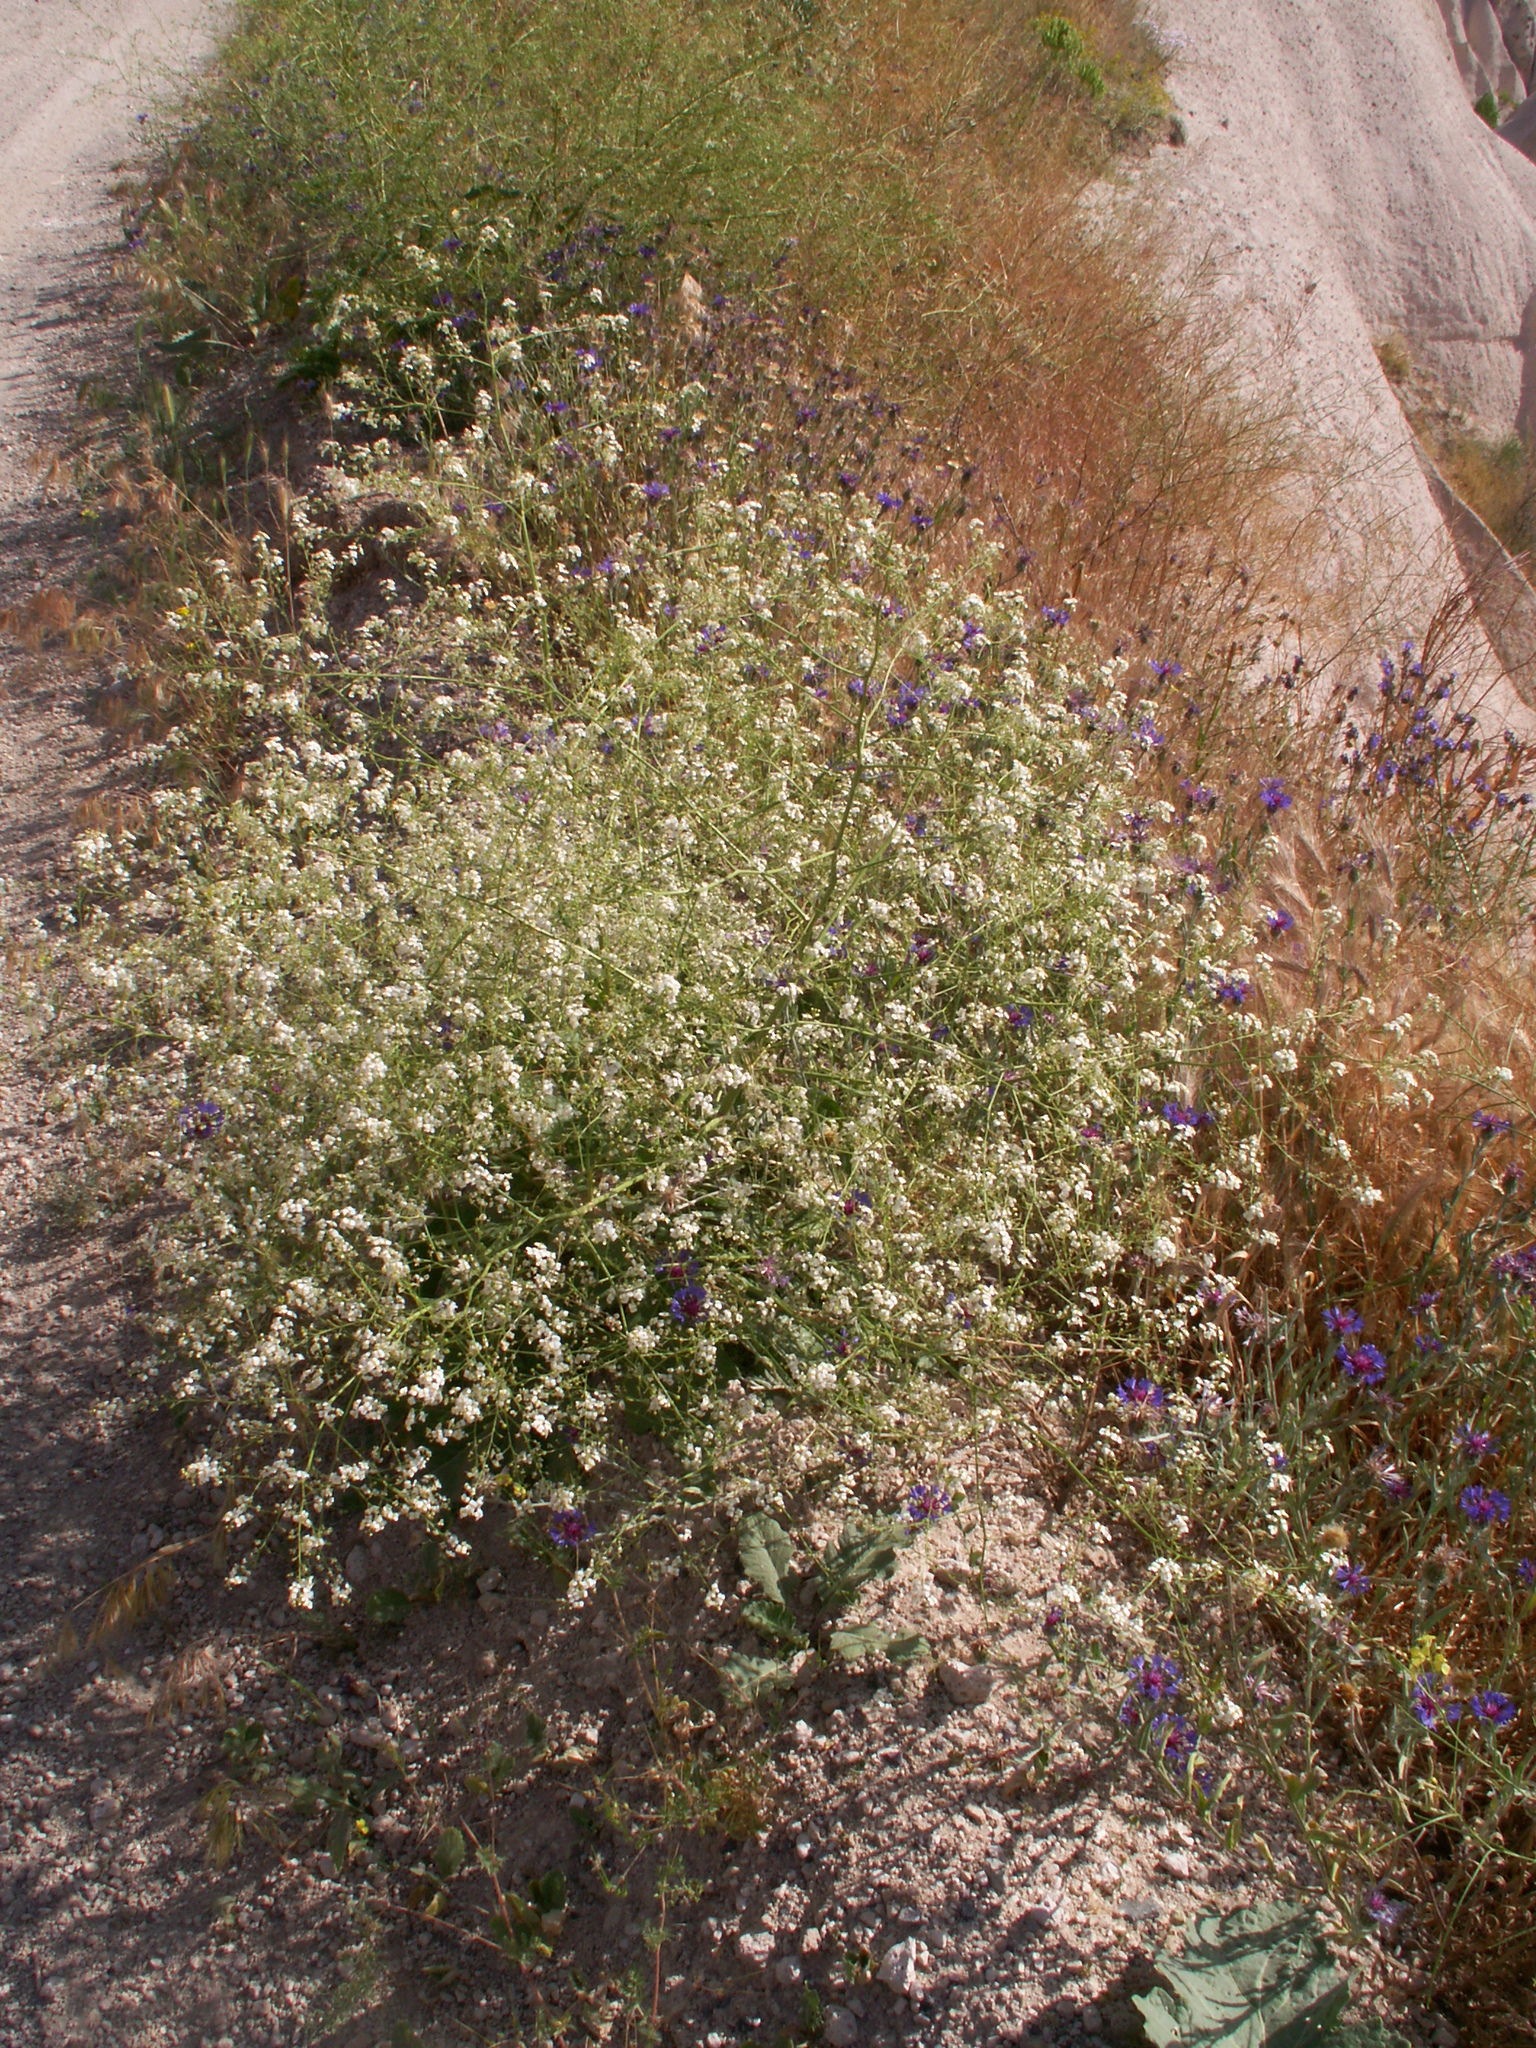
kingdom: Plantae
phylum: Tracheophyta
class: Magnoliopsida
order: Brassicales
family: Brassicaceae
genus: Crambe
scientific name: Crambe orientalis
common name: Oriental sea-kale
